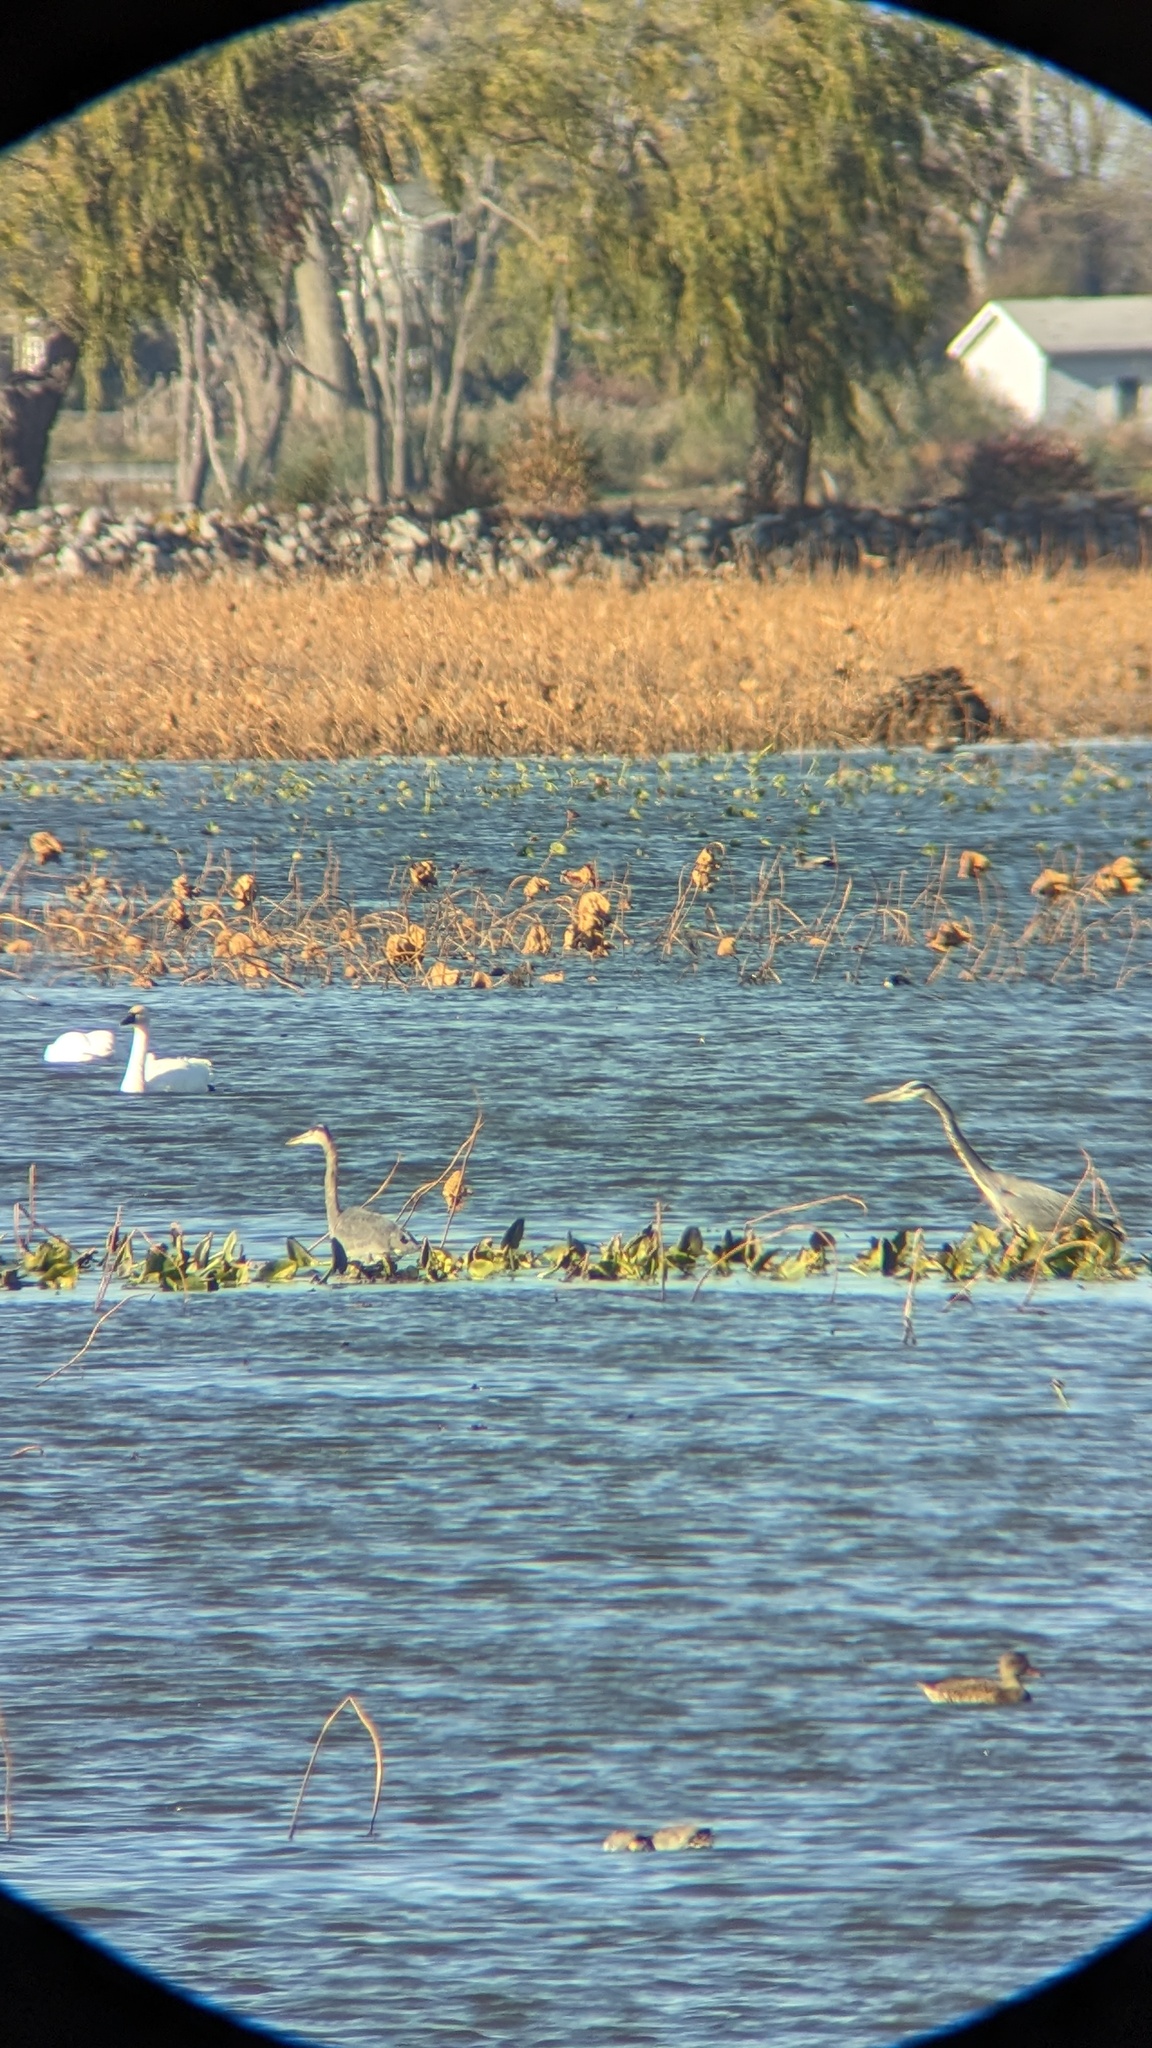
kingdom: Animalia
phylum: Chordata
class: Aves
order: Pelecaniformes
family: Ardeidae
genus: Ardea
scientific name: Ardea herodias
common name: Great blue heron
